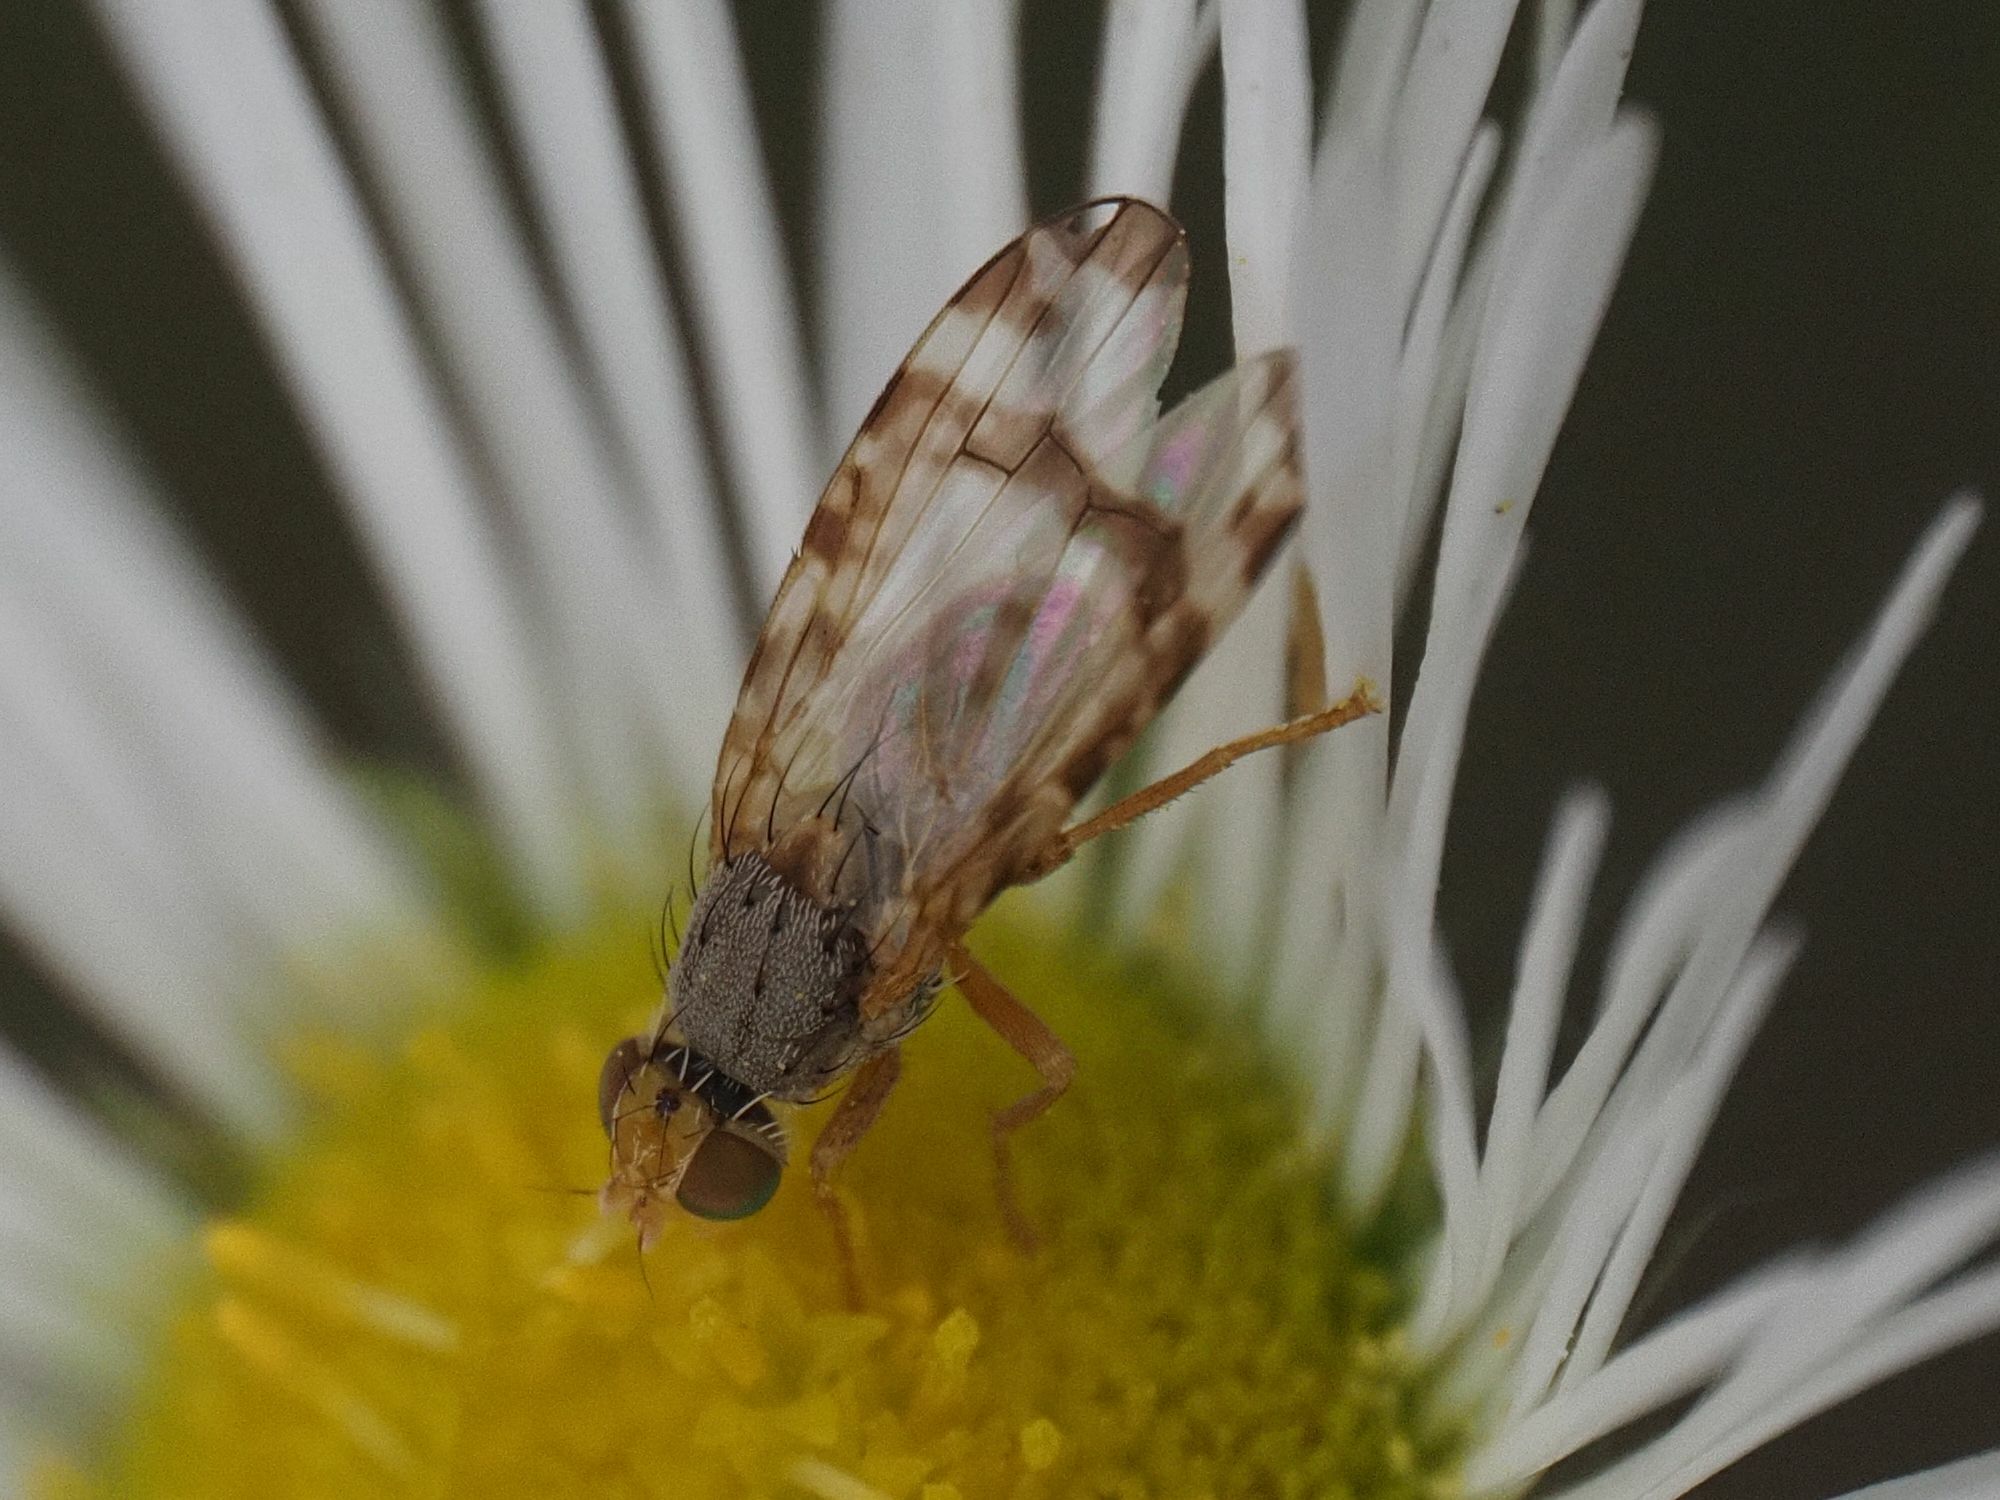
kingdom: Animalia
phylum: Arthropoda
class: Insecta
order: Diptera
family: Tephritidae
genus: Sphenella
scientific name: Sphenella marginata
